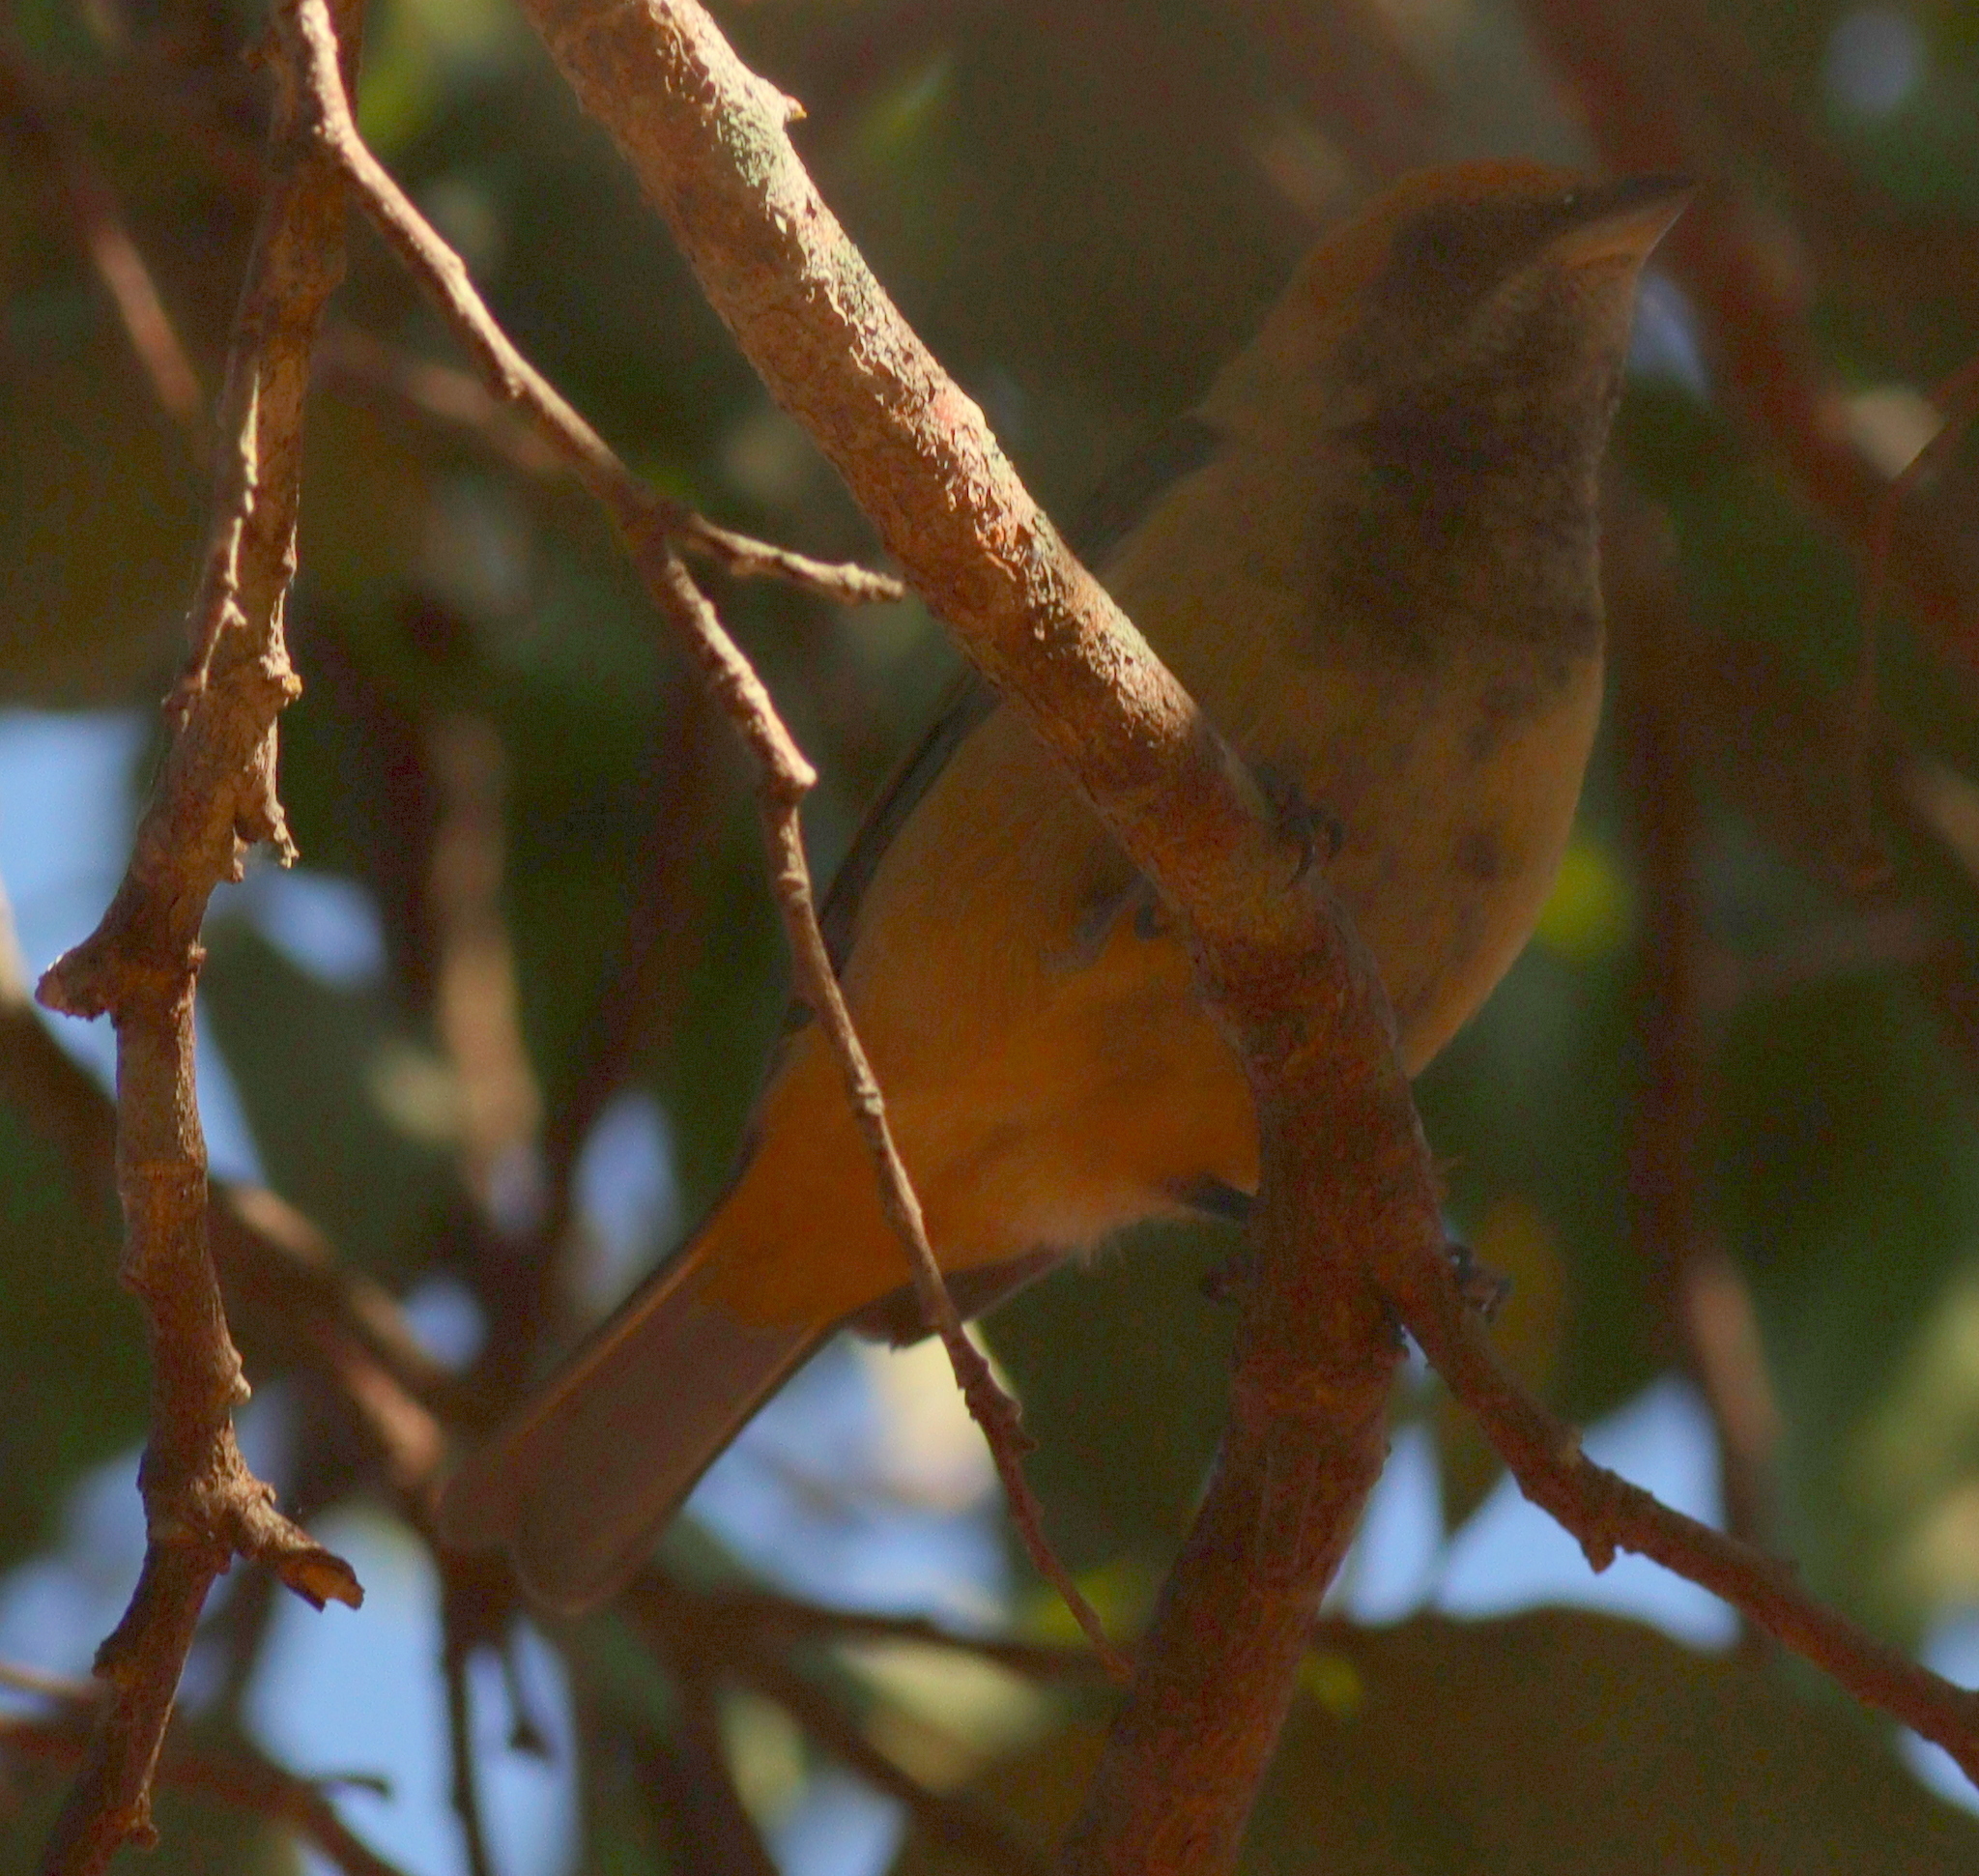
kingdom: Animalia
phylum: Chordata
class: Aves
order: Passeriformes
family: Thraupidae
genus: Stilpnia
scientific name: Stilpnia cayana
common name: Burnished-buff tanager
